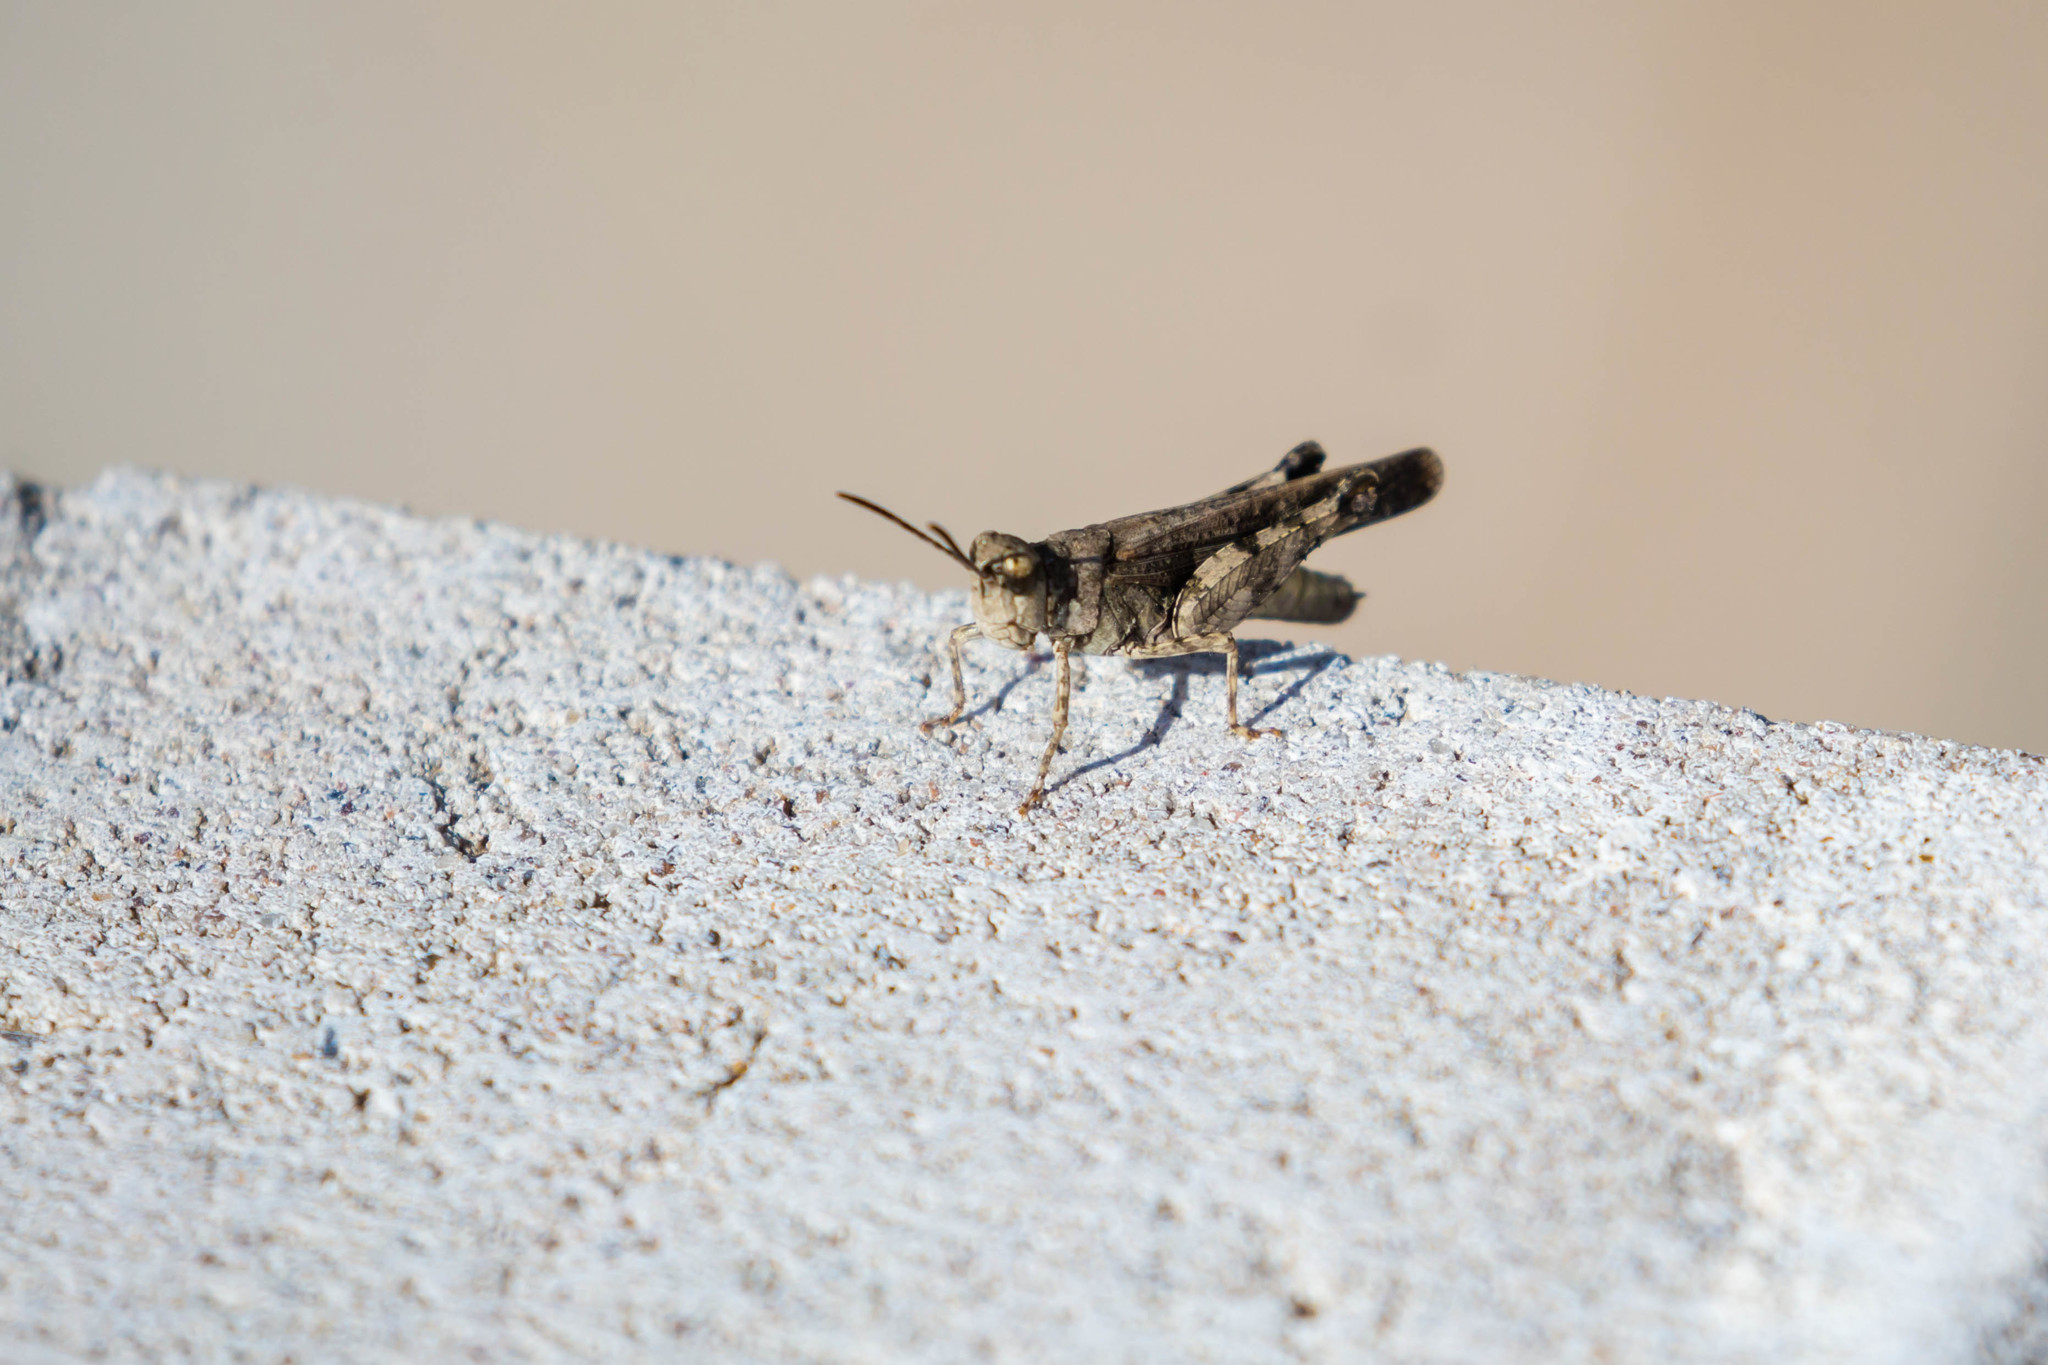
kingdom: Animalia
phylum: Arthropoda
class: Insecta
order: Orthoptera
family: Acrididae
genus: Nebulatettix
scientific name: Nebulatettix subgracilis
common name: Southwestern dusky grasshopper
